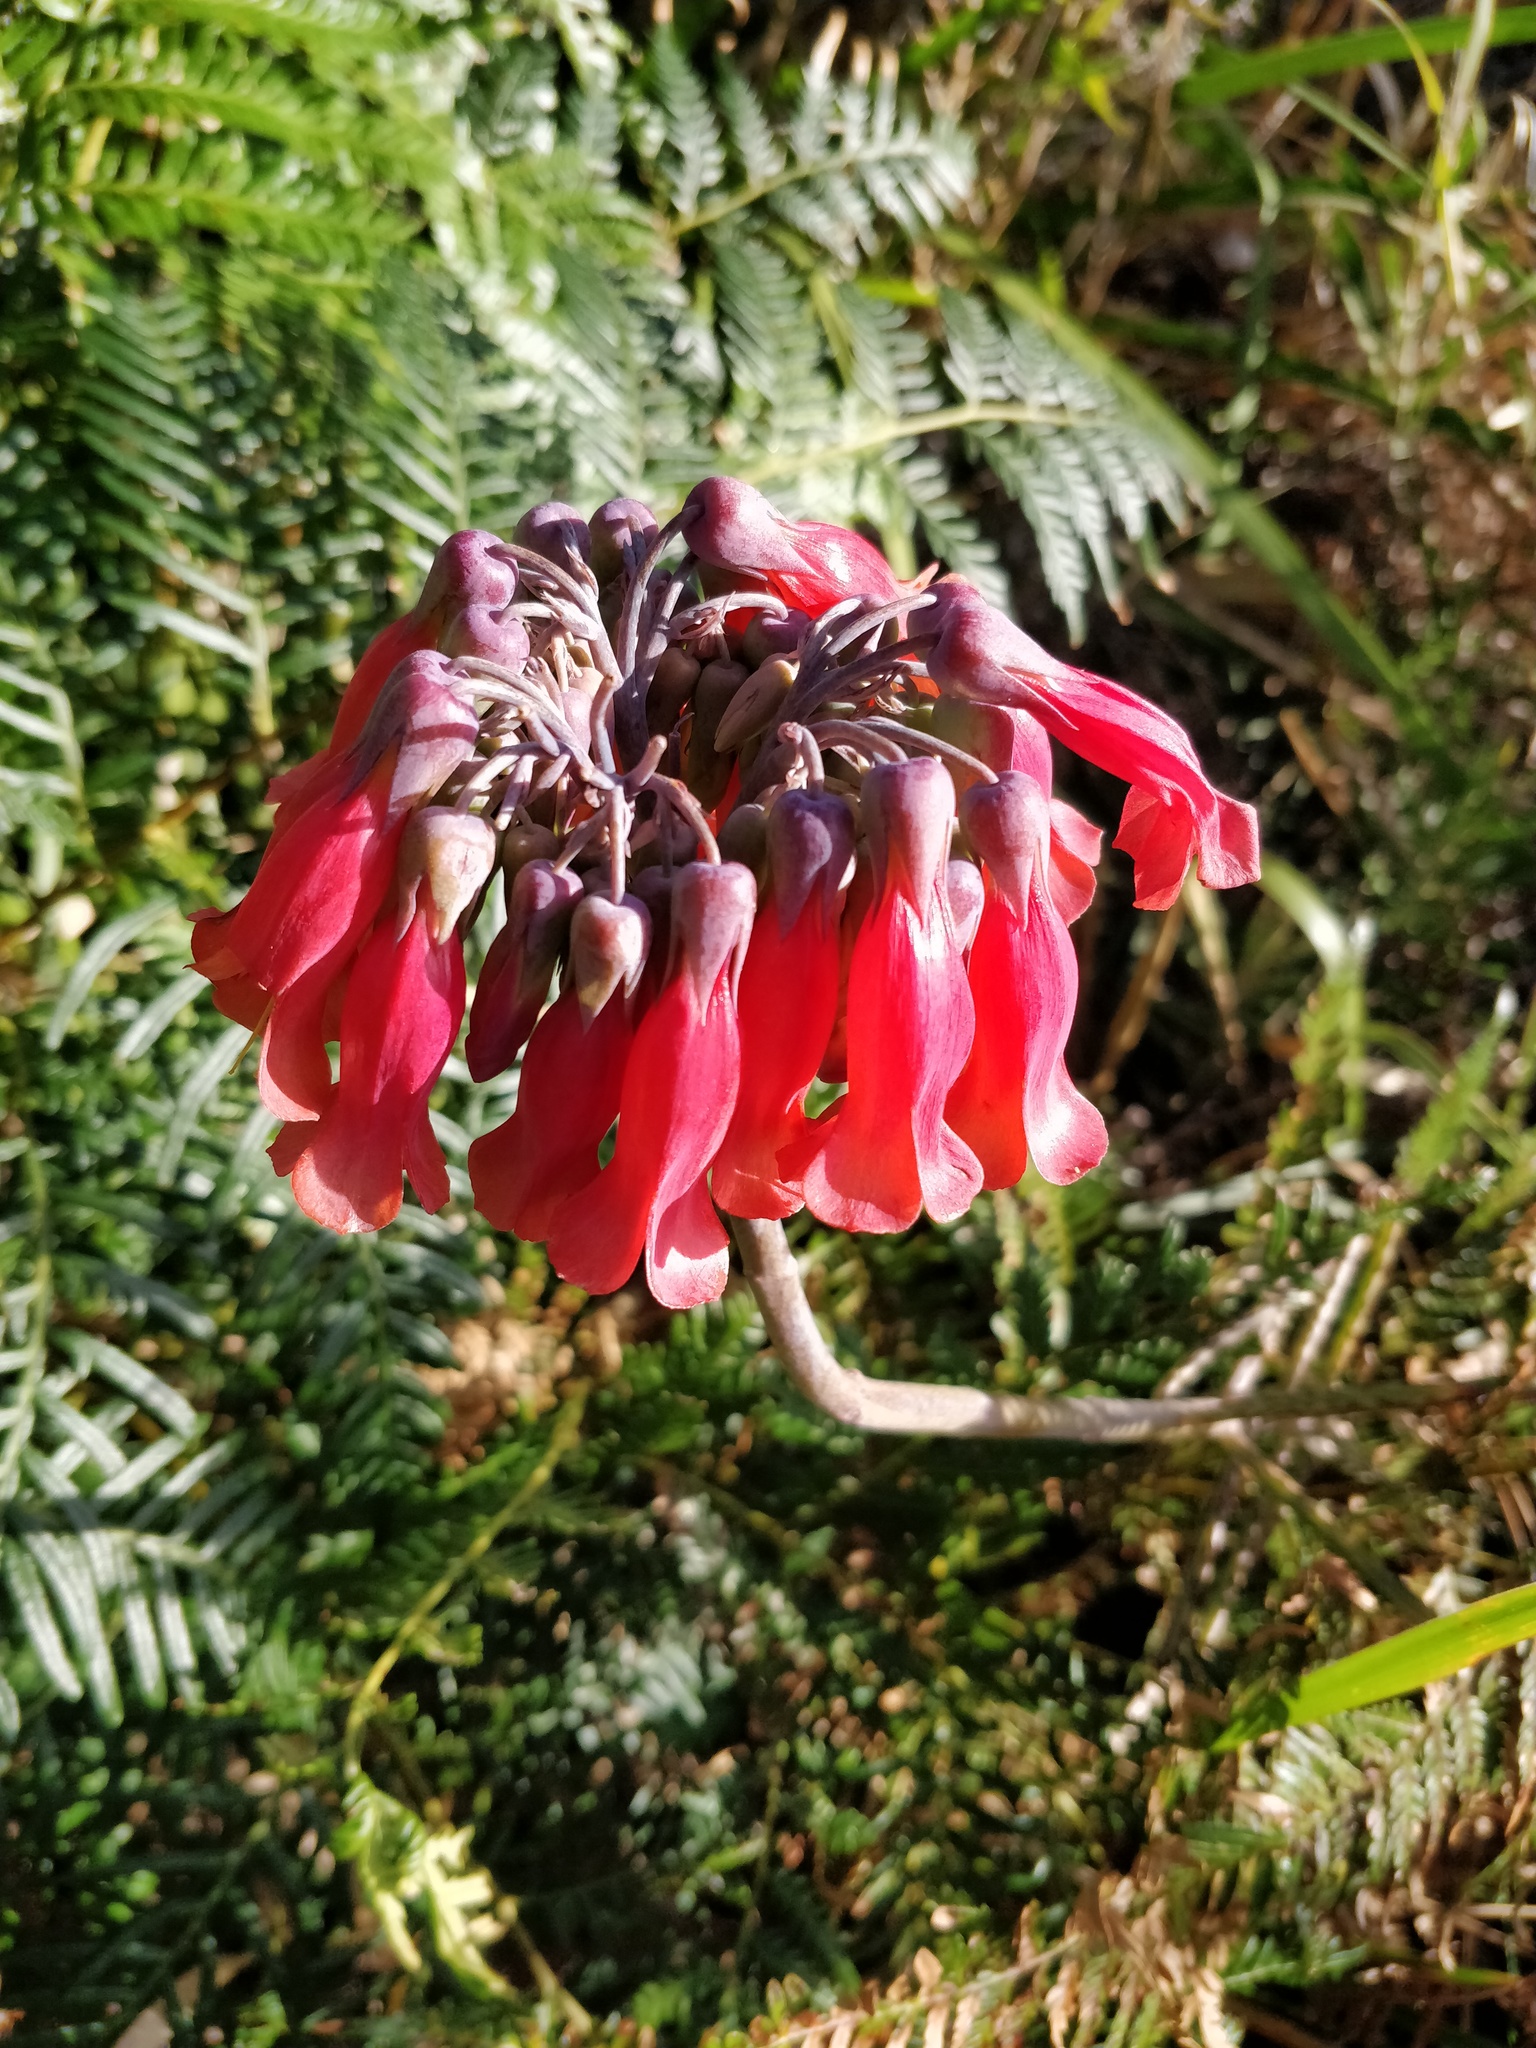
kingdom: Plantae
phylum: Tracheophyta
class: Magnoliopsida
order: Saxifragales
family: Crassulaceae
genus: Kalanchoe
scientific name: Kalanchoe delagoensis
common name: Chandelier plant
